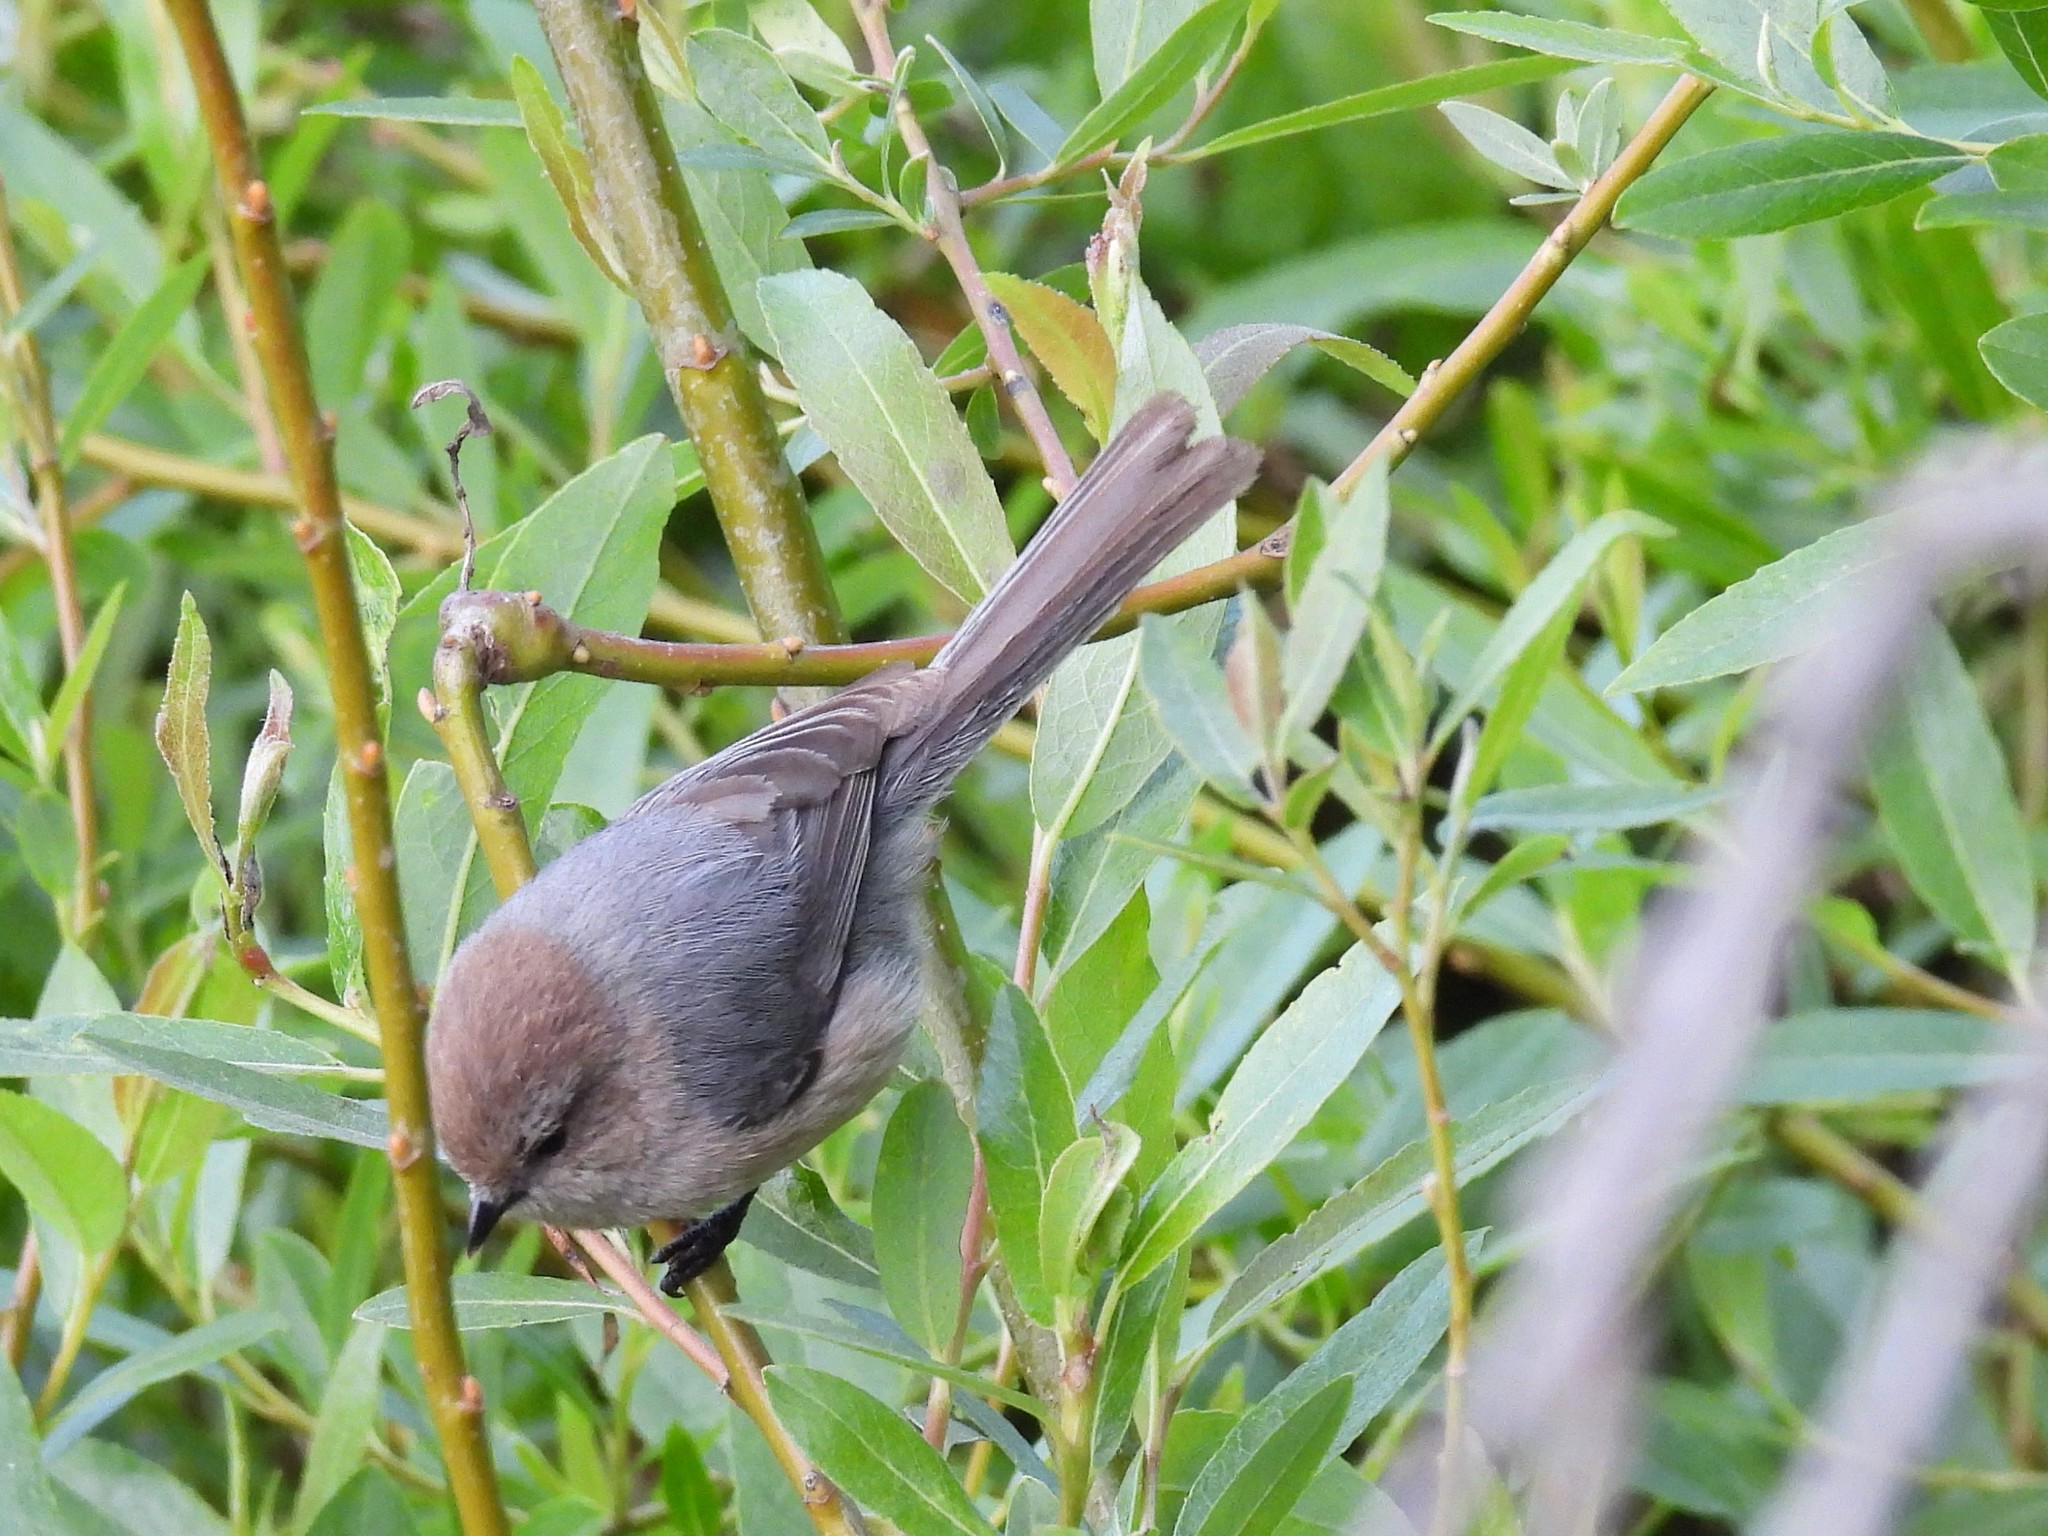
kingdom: Animalia
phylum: Chordata
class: Aves
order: Passeriformes
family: Aegithalidae
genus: Psaltriparus
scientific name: Psaltriparus minimus
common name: American bushtit
